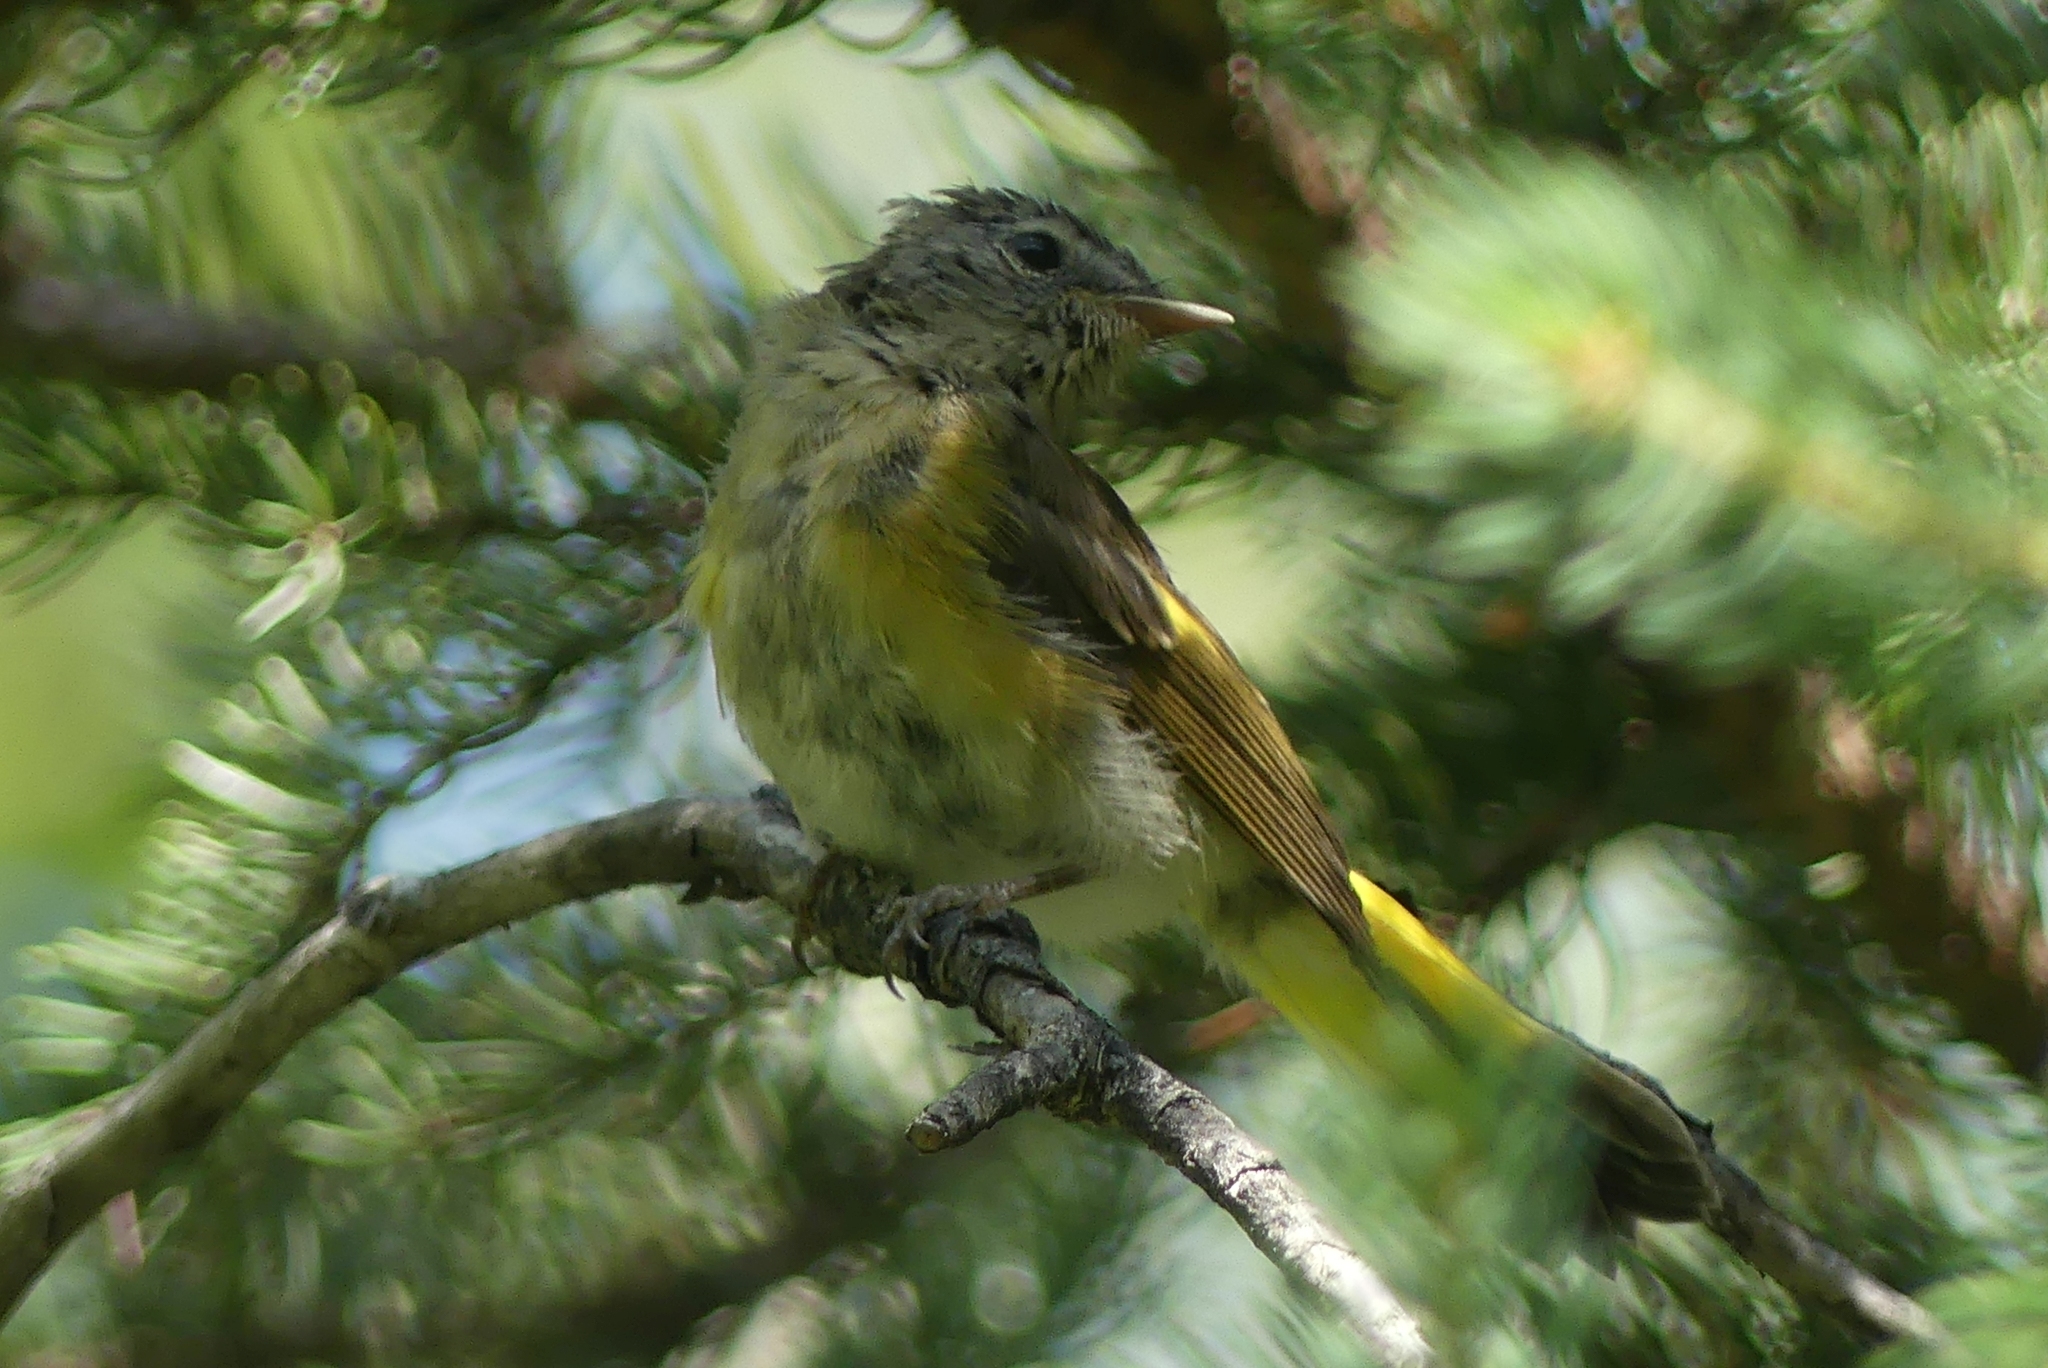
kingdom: Animalia
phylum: Chordata
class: Aves
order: Passeriformes
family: Parulidae
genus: Setophaga
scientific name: Setophaga ruticilla
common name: American redstart
